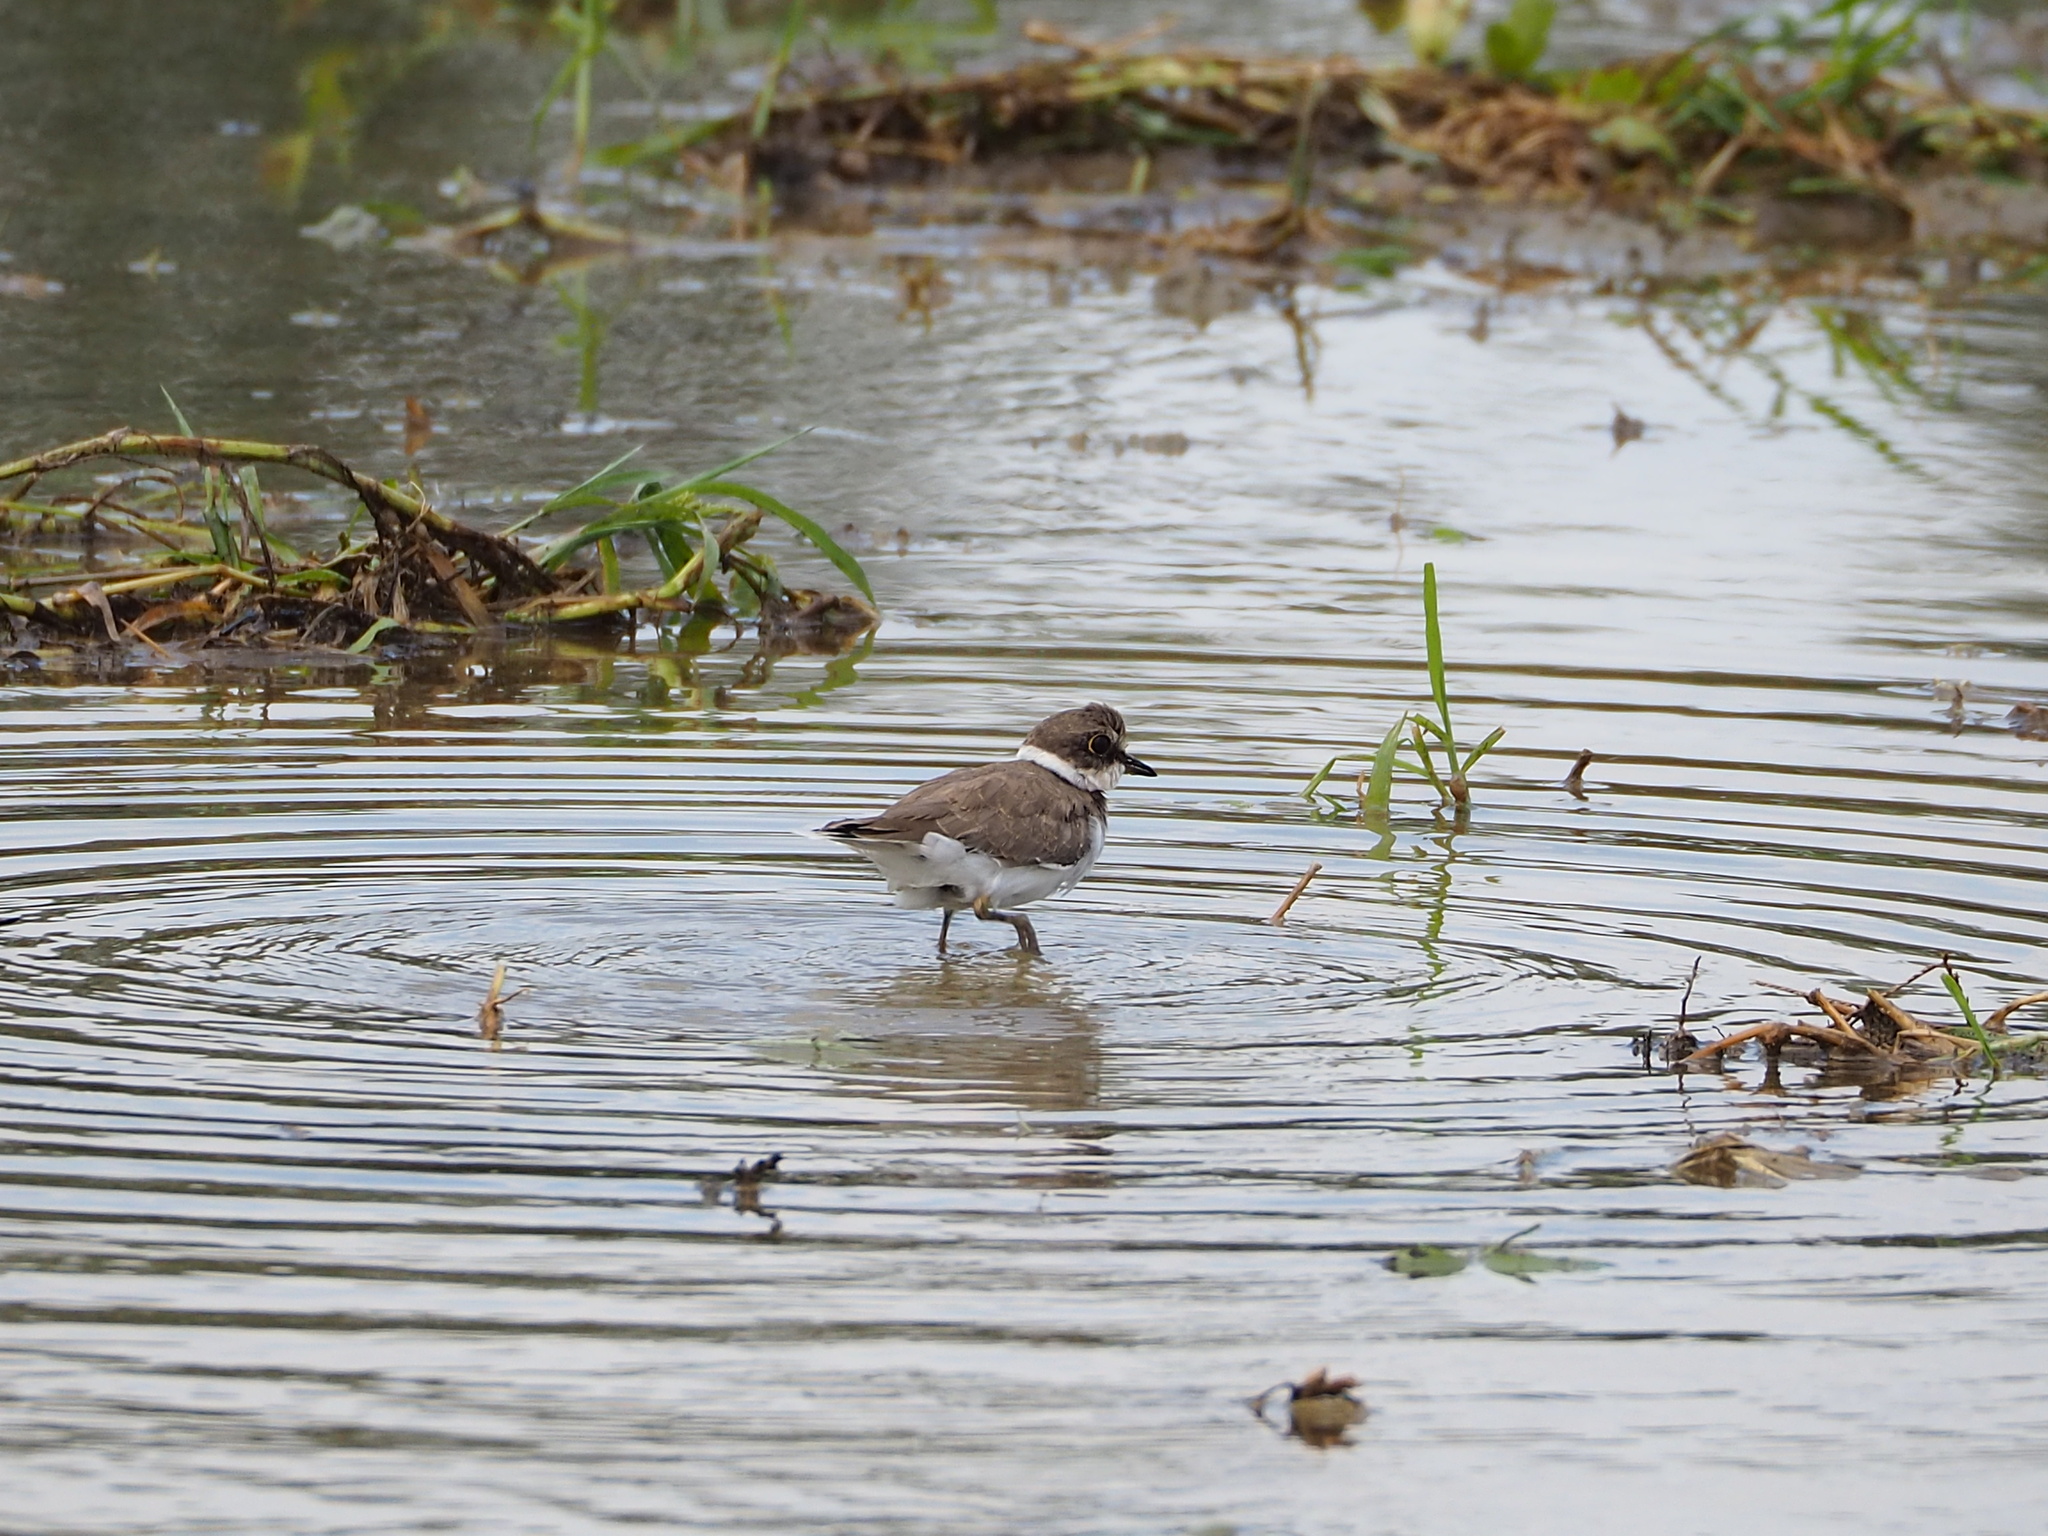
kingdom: Animalia
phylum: Chordata
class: Aves
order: Charadriiformes
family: Charadriidae
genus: Charadrius
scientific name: Charadrius dubius
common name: Little ringed plover
